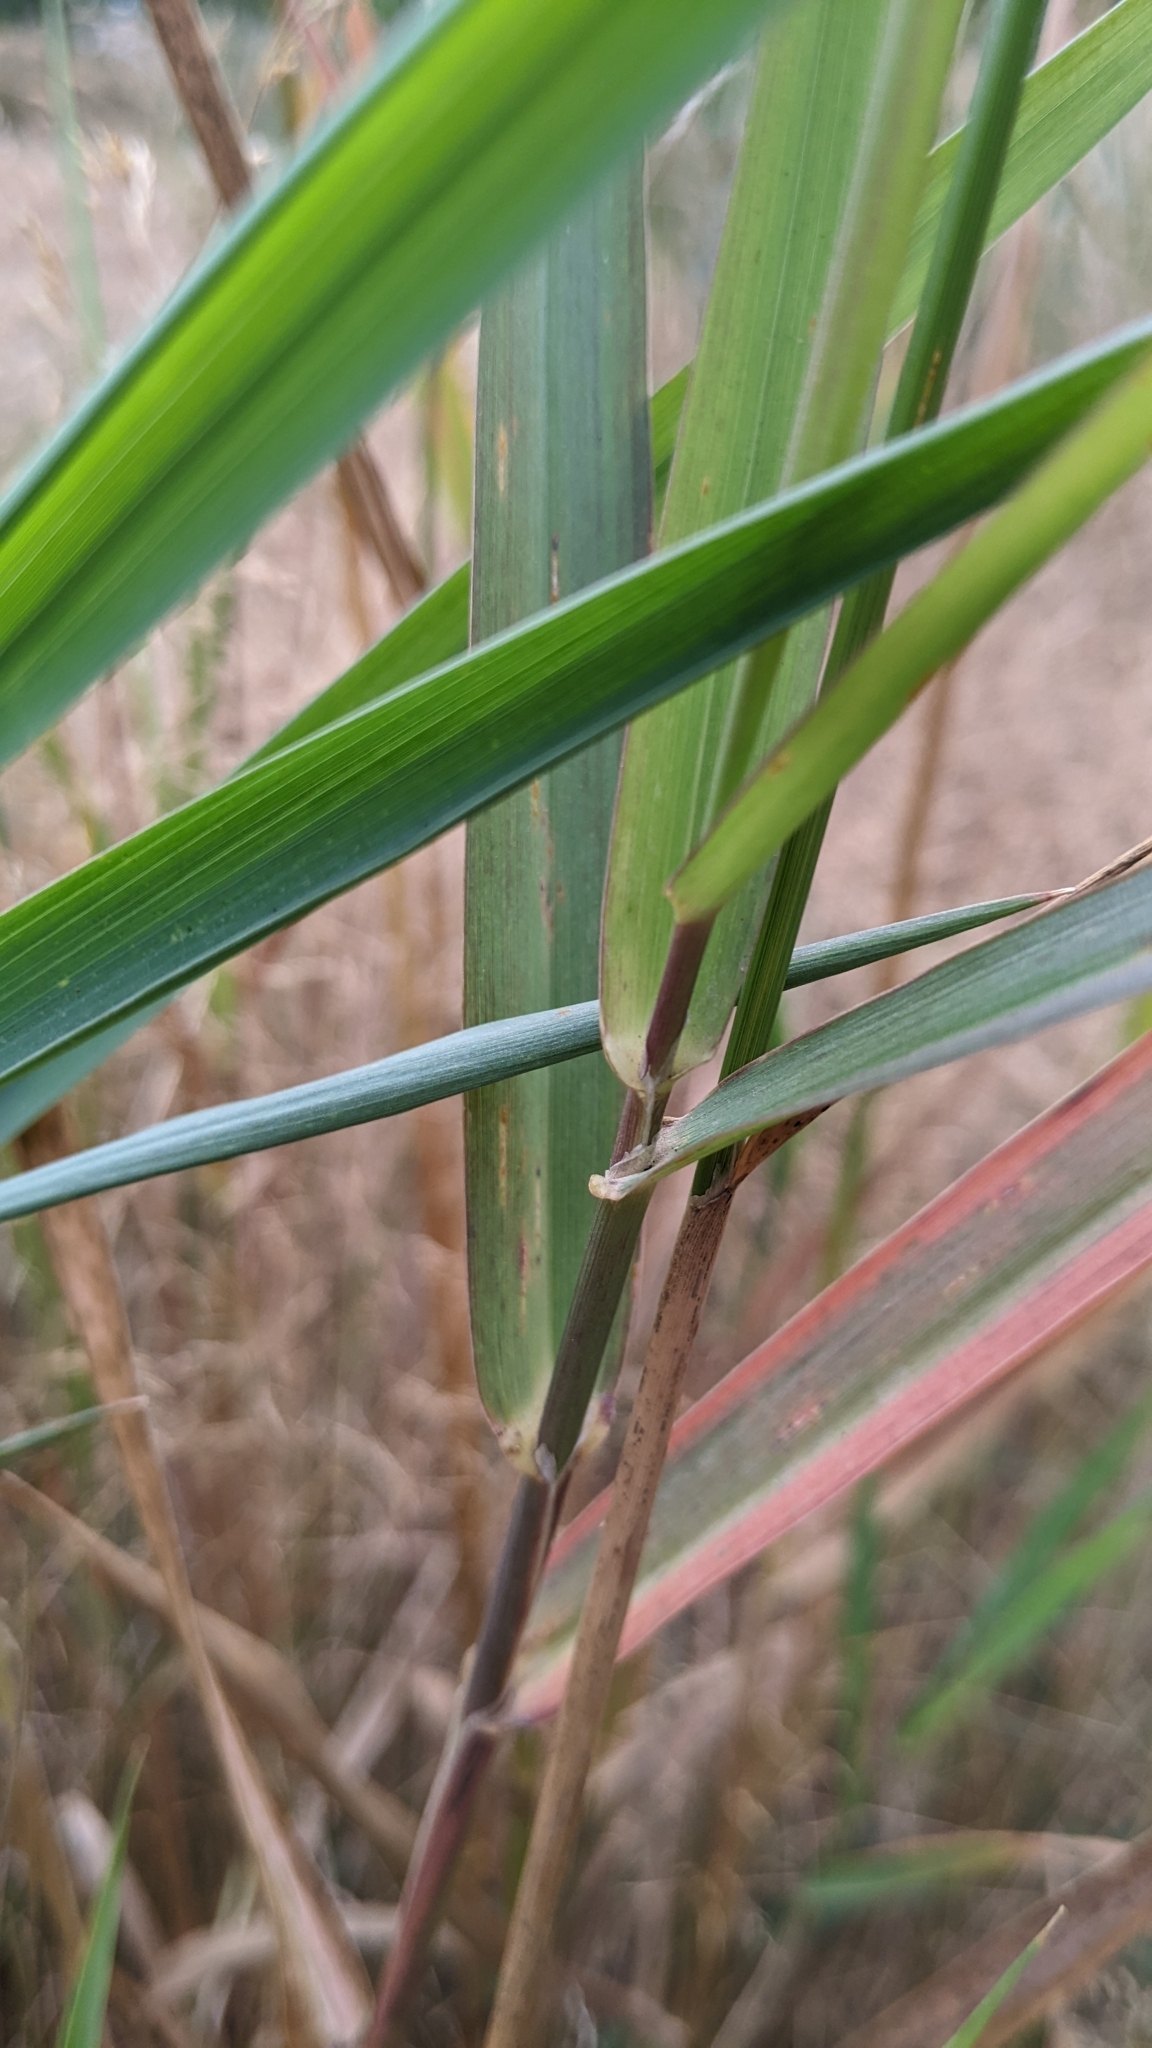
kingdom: Plantae
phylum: Tracheophyta
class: Liliopsida
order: Poales
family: Poaceae
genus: Phalaris
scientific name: Phalaris arundinacea
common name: Reed canary-grass
